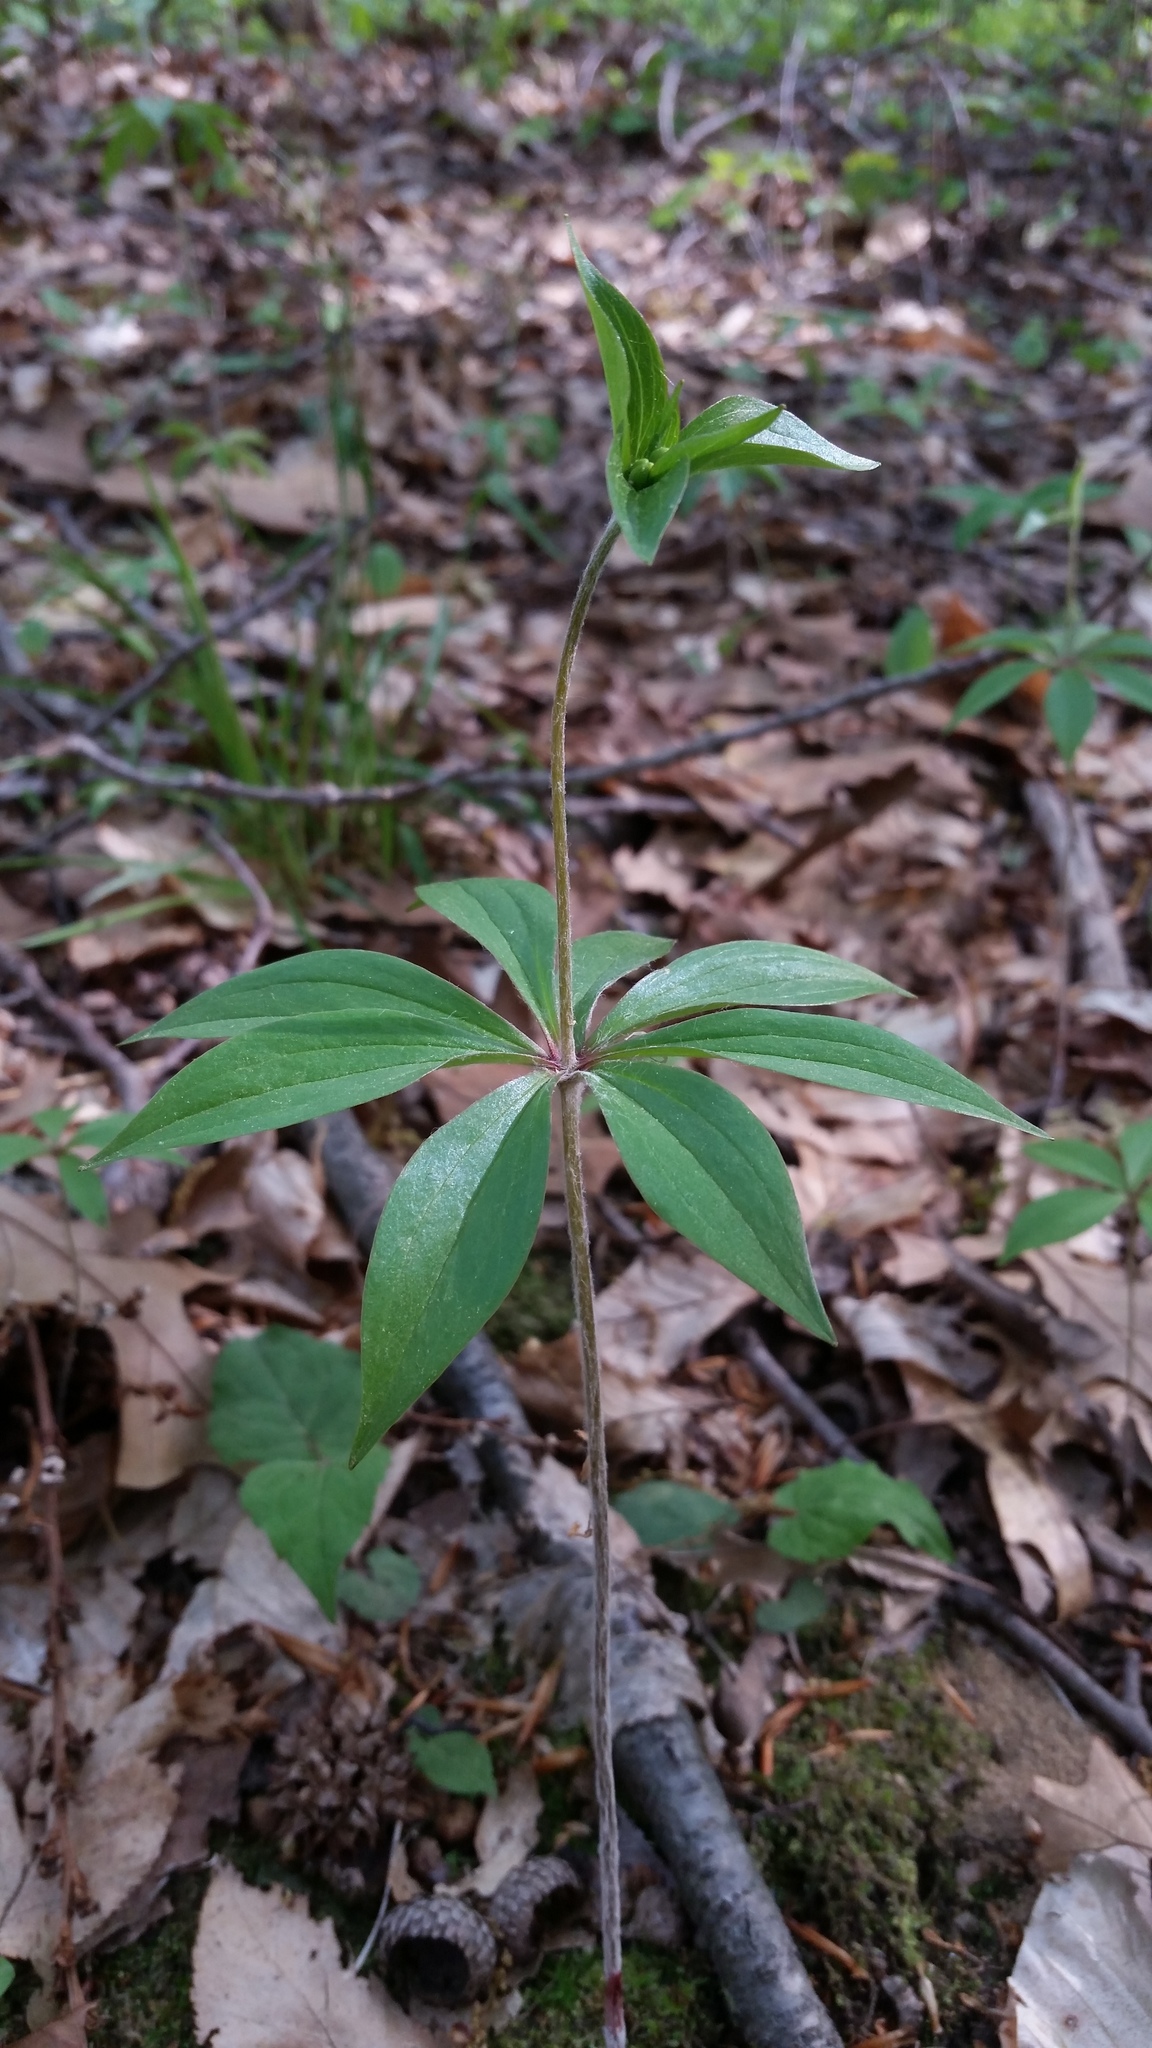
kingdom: Plantae
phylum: Tracheophyta
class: Liliopsida
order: Liliales
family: Liliaceae
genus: Medeola
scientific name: Medeola virginiana
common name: Indian cucumber-root
